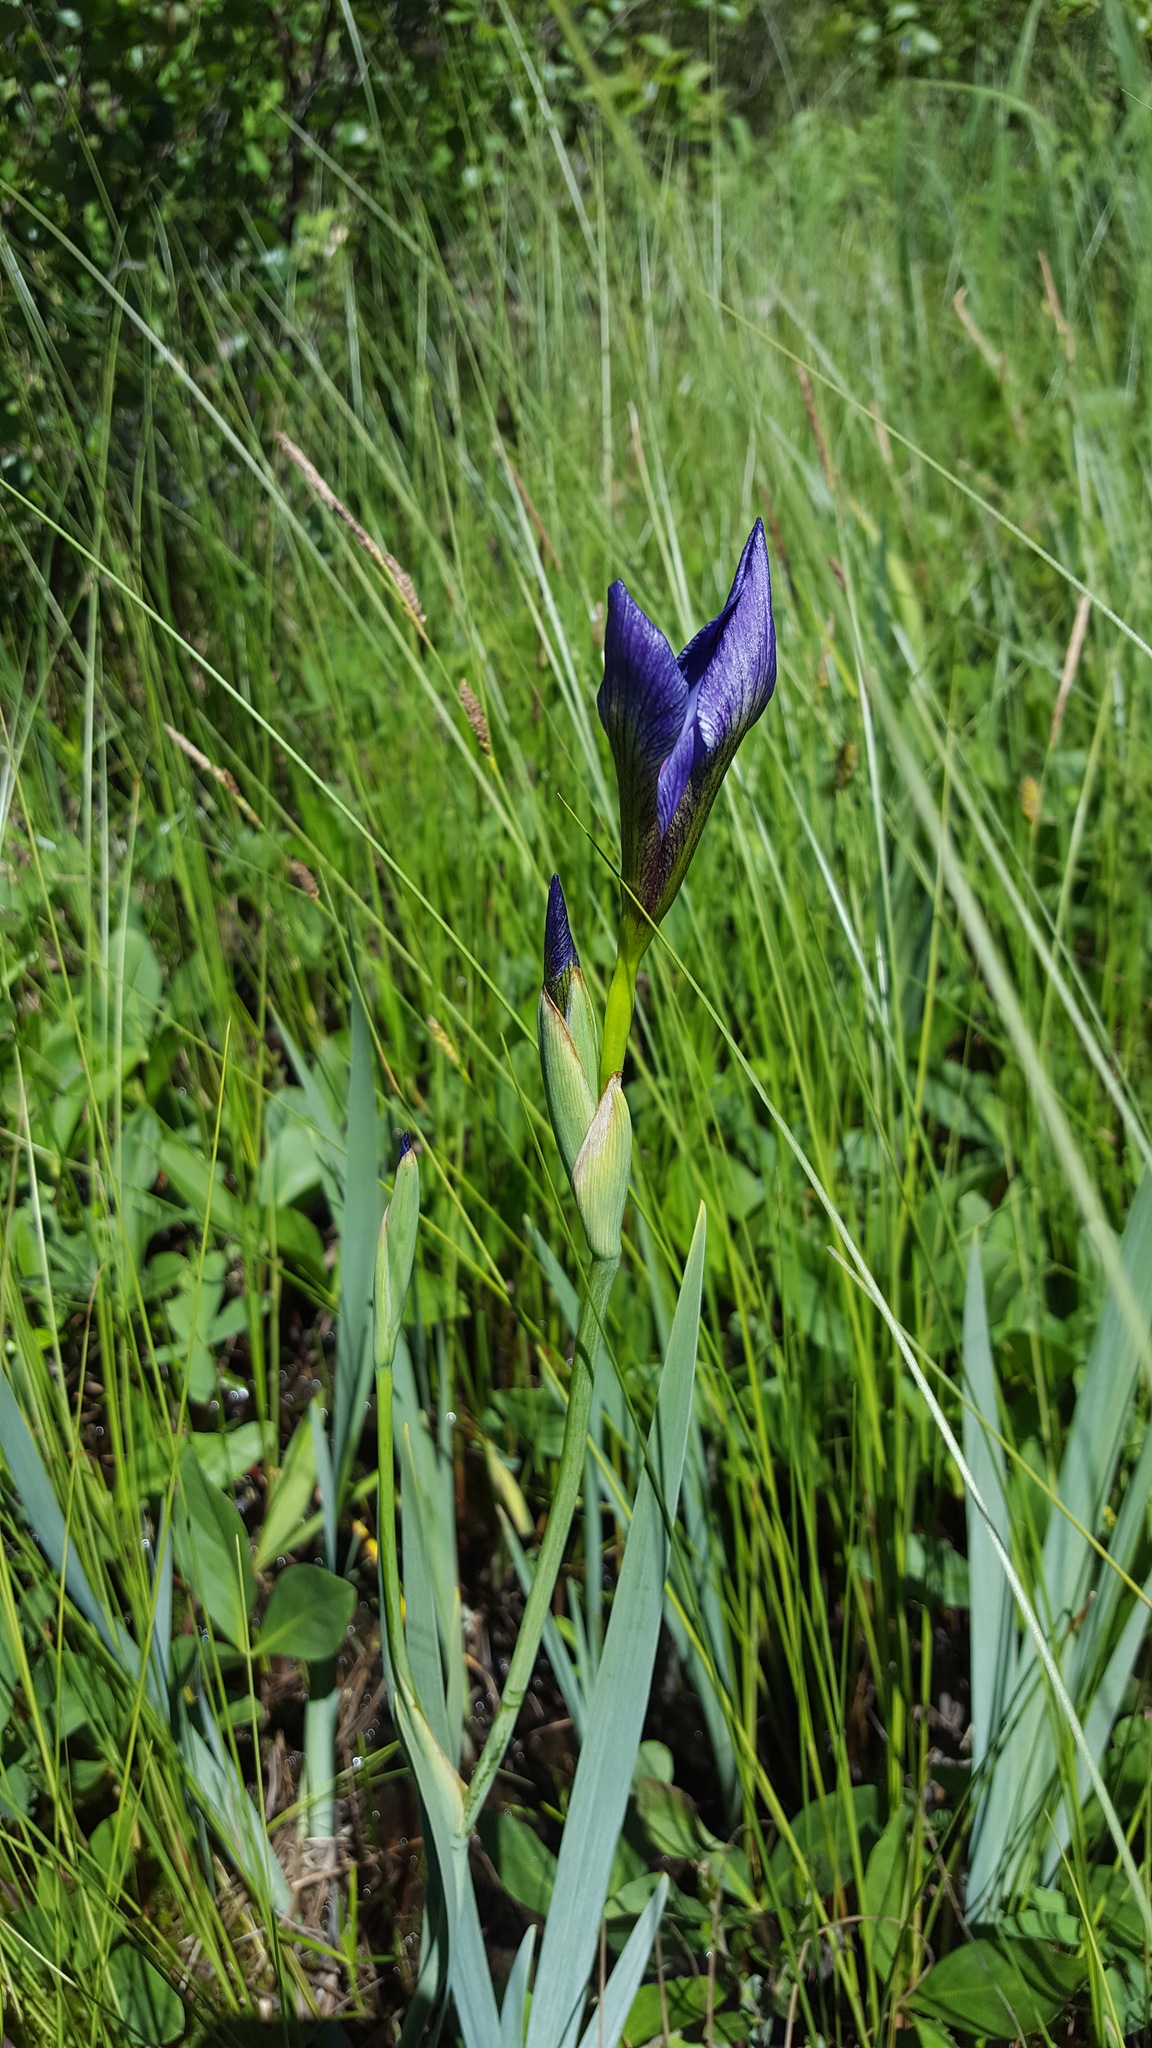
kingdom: Plantae
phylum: Tracheophyta
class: Liliopsida
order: Asparagales
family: Iridaceae
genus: Iris
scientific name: Iris versicolor
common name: Purple iris
